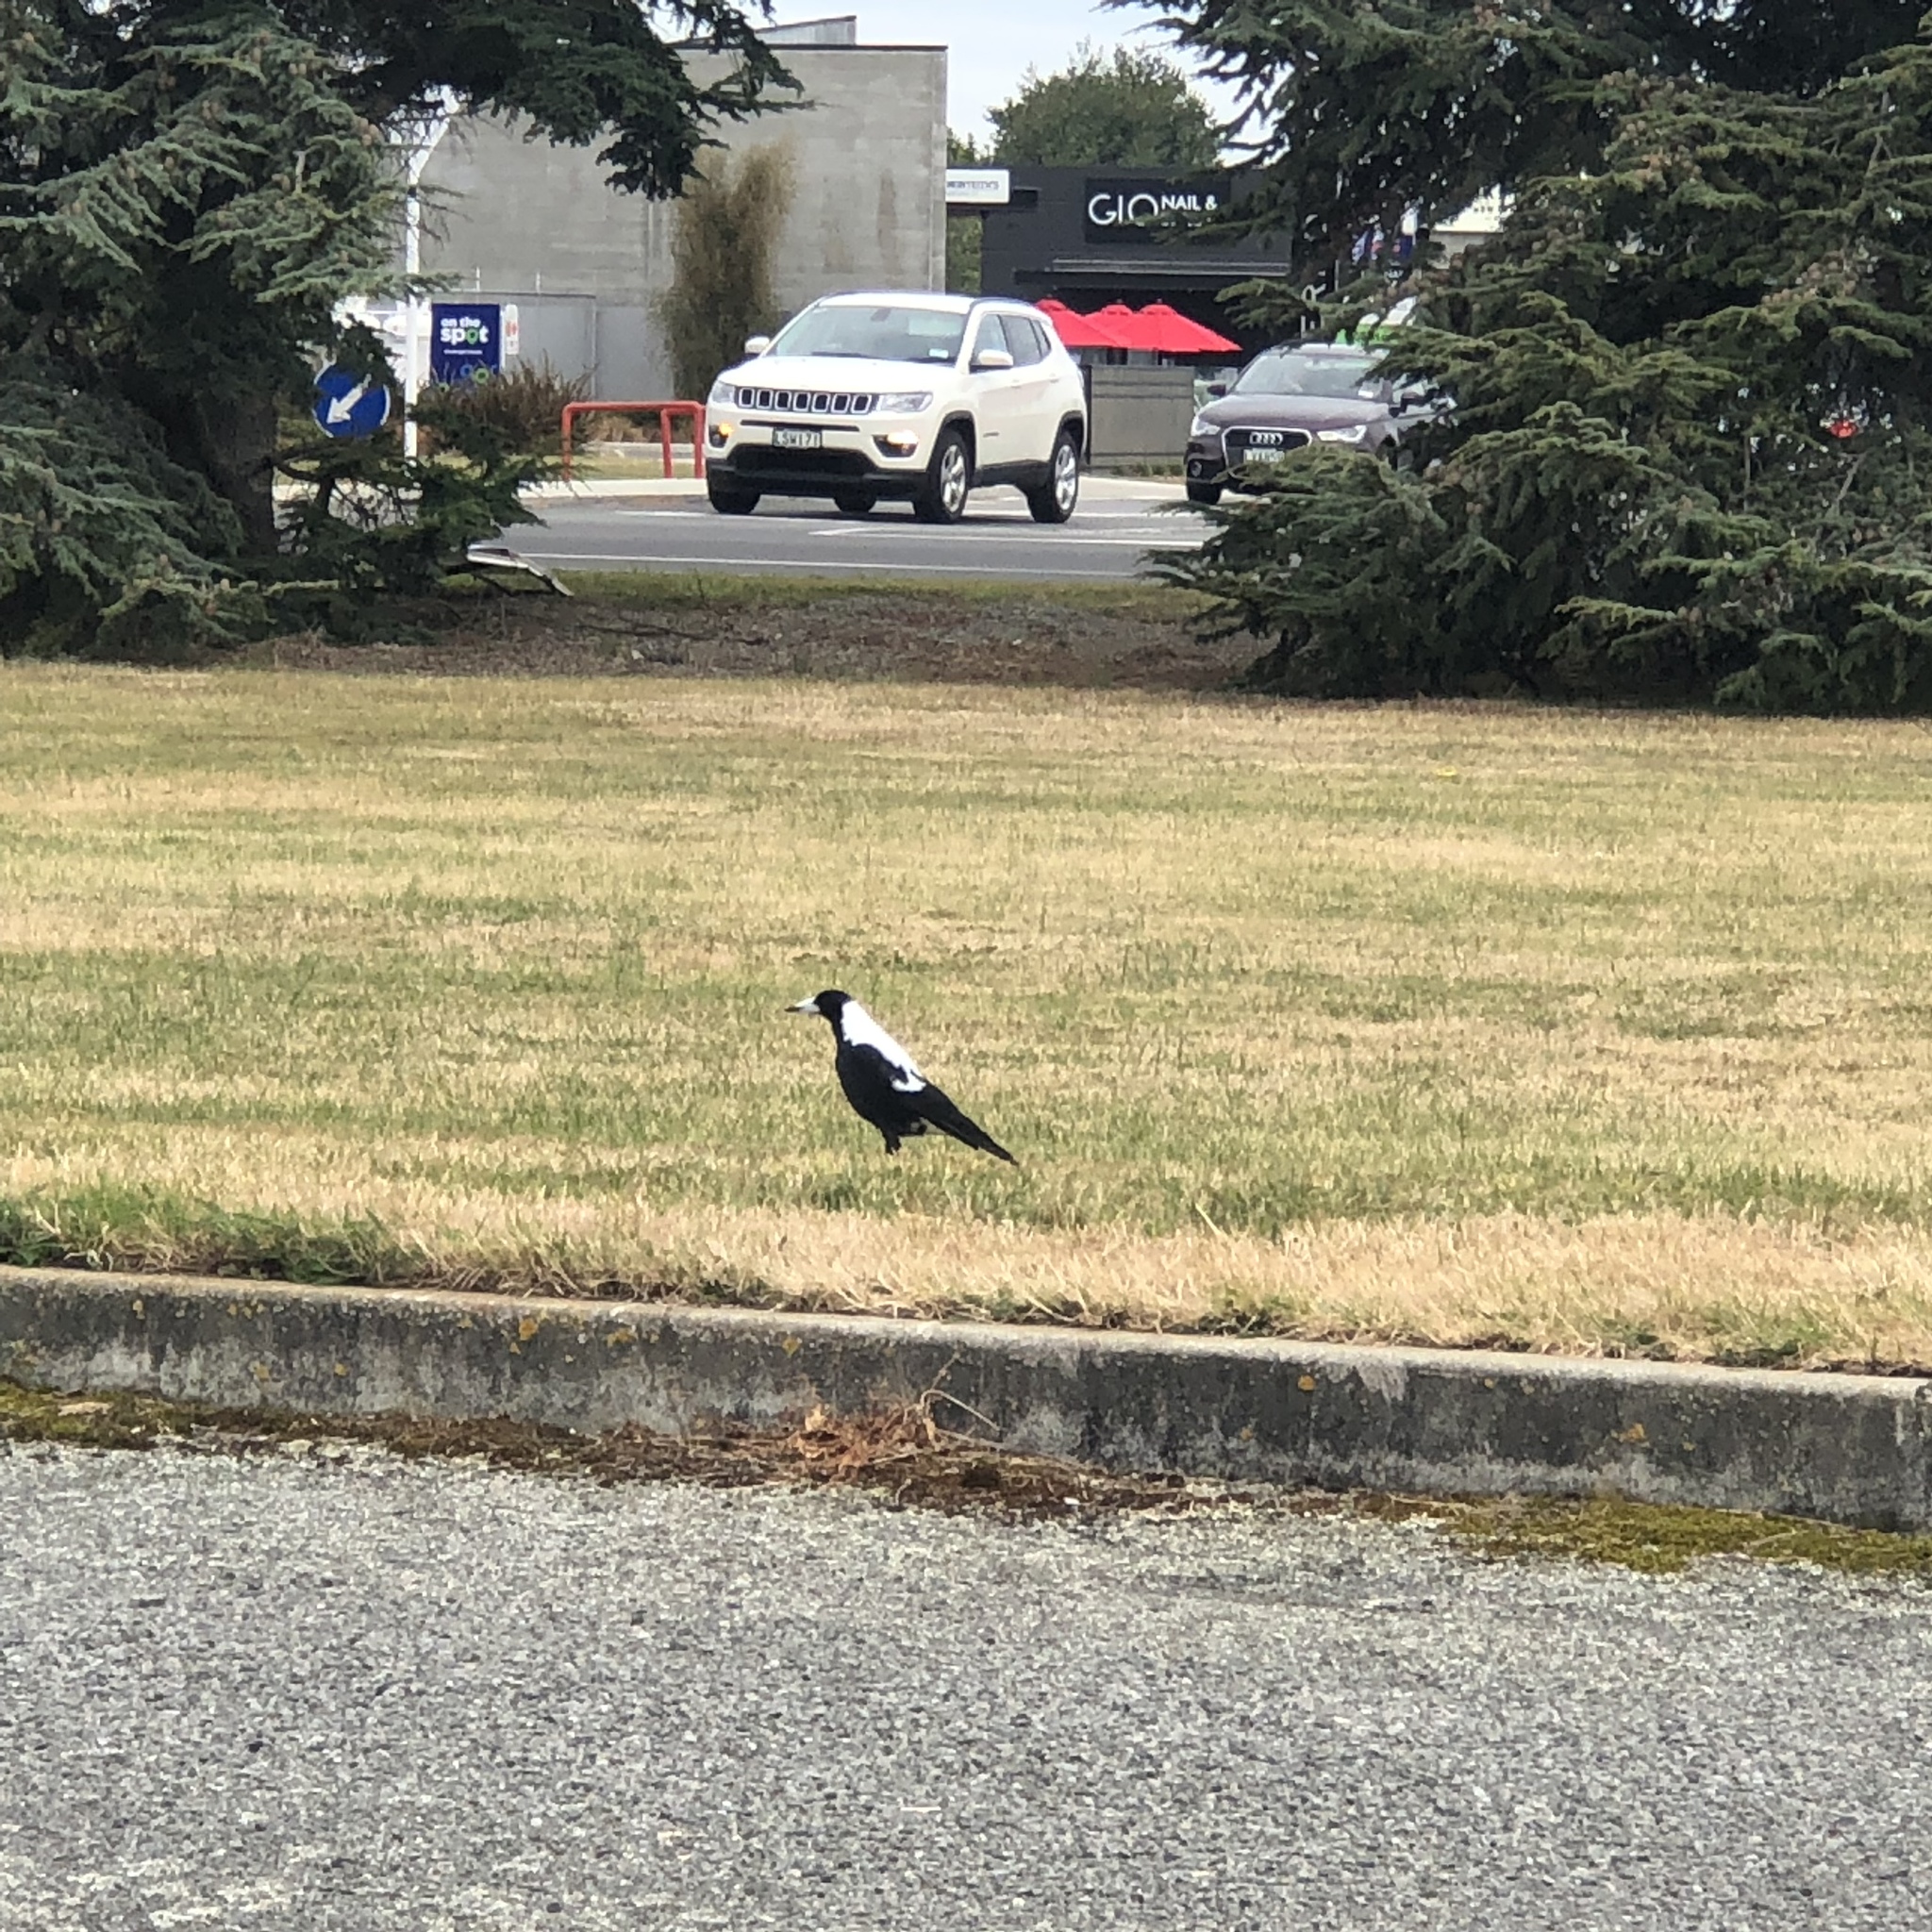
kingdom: Animalia
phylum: Chordata
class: Aves
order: Passeriformes
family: Cracticidae
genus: Gymnorhina
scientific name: Gymnorhina tibicen
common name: Australian magpie
